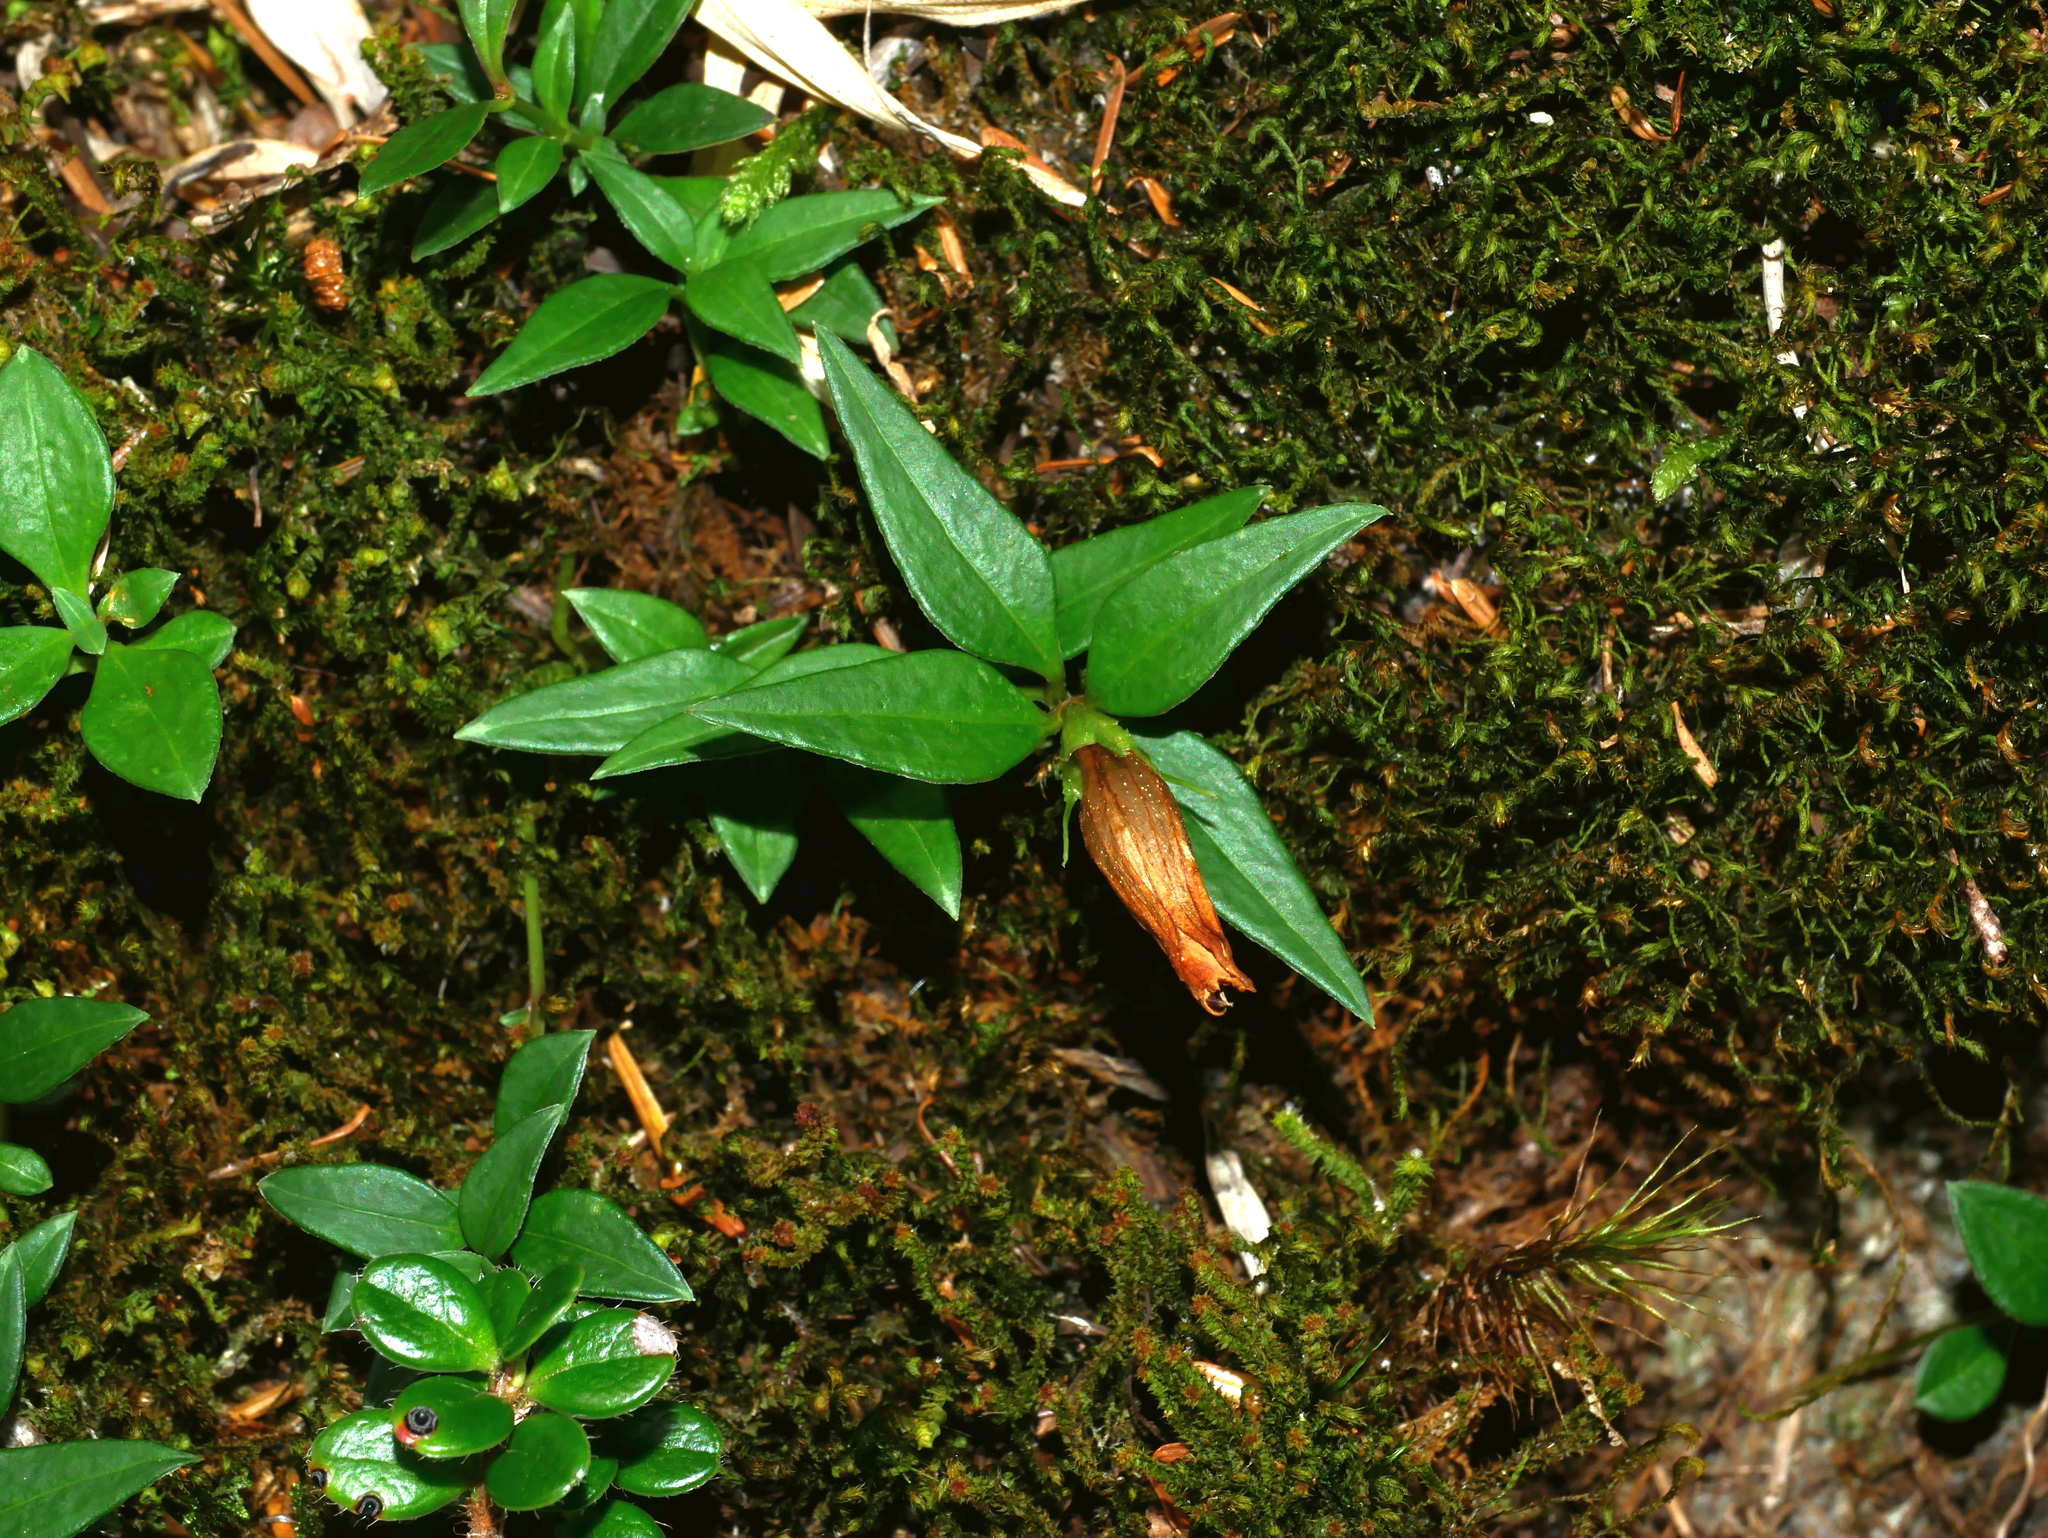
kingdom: Plantae
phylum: Tracheophyta
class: Magnoliopsida
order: Gentianales
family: Gentianaceae
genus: Tripterospermum
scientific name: Tripterospermum microphyllum
